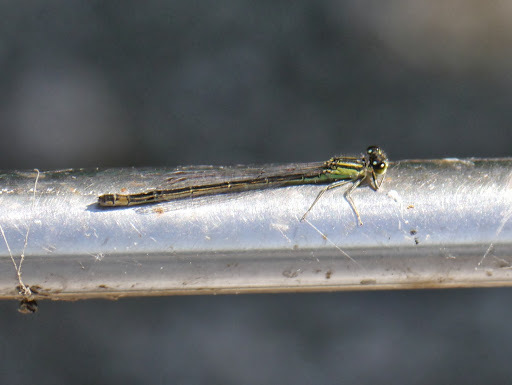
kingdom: Animalia
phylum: Arthropoda
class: Insecta
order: Odonata
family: Coenagrionidae
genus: Ischnura
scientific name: Ischnura elegans
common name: Blue-tailed damselfly
